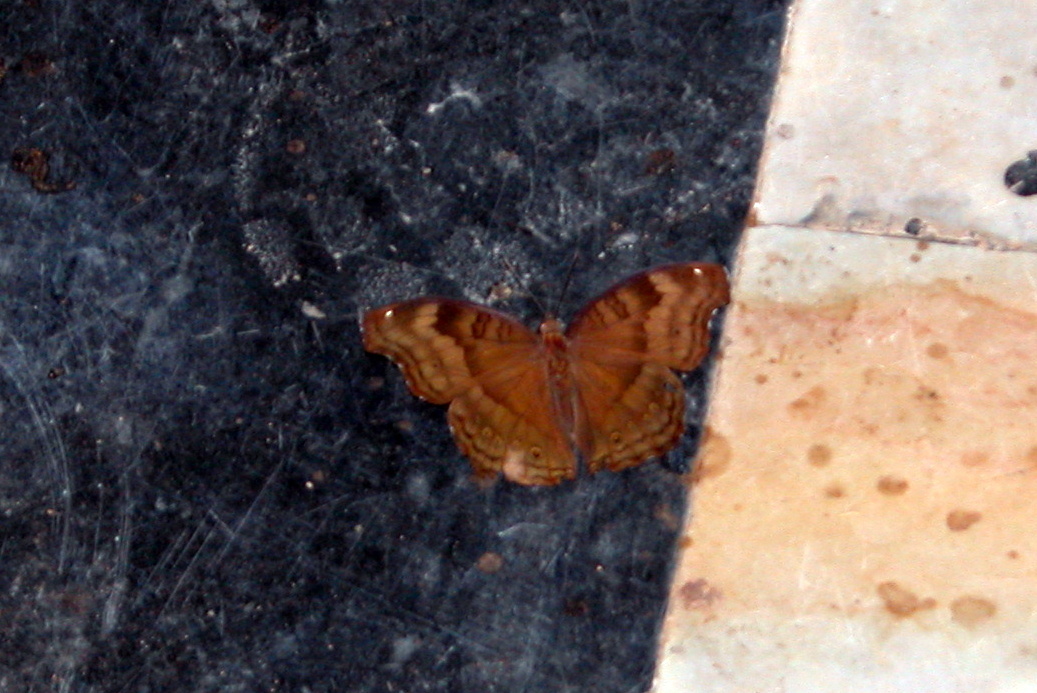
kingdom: Animalia
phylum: Arthropoda
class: Insecta
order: Lepidoptera
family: Nymphalidae
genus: Junonia
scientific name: Junonia iphita
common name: Chocolate pansy
